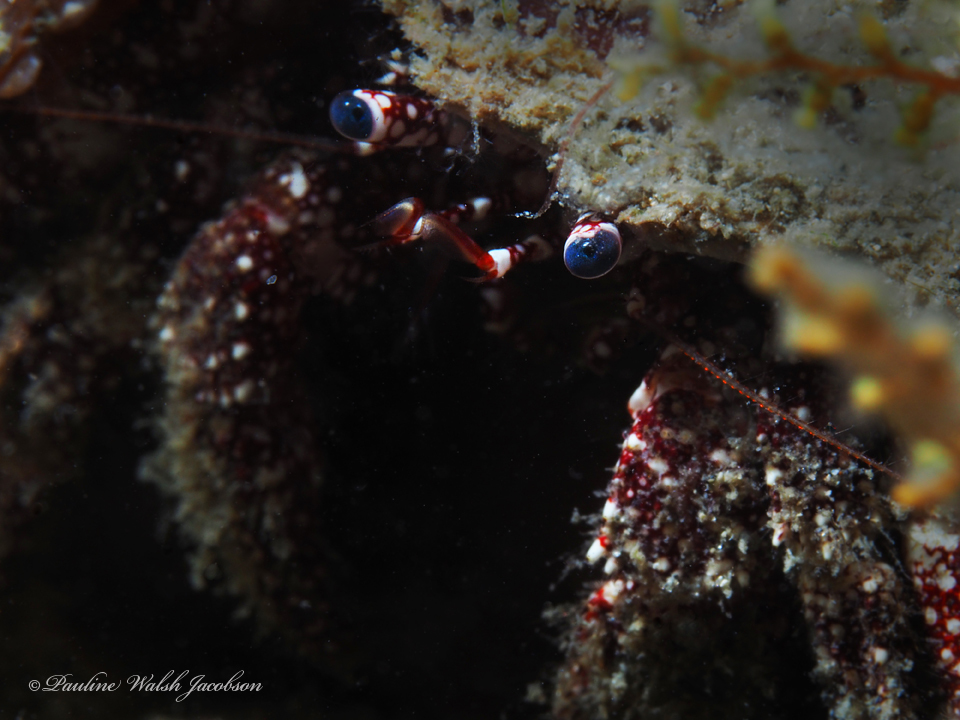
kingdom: Animalia
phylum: Arthropoda
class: Malacostraca
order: Decapoda
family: Diogenidae
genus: Paguristes
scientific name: Paguristes puncticeps
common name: White speckled hermit
